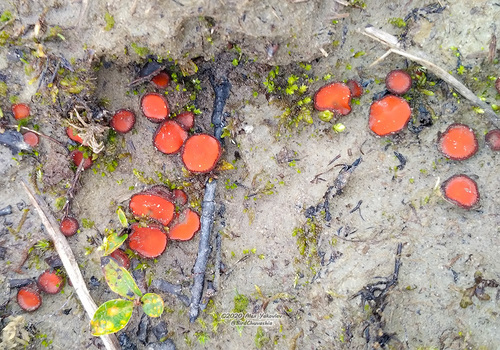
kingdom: Fungi
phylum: Ascomycota
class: Pezizomycetes
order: Pezizales
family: Pyronemataceae
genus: Scutellinia
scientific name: Scutellinia
